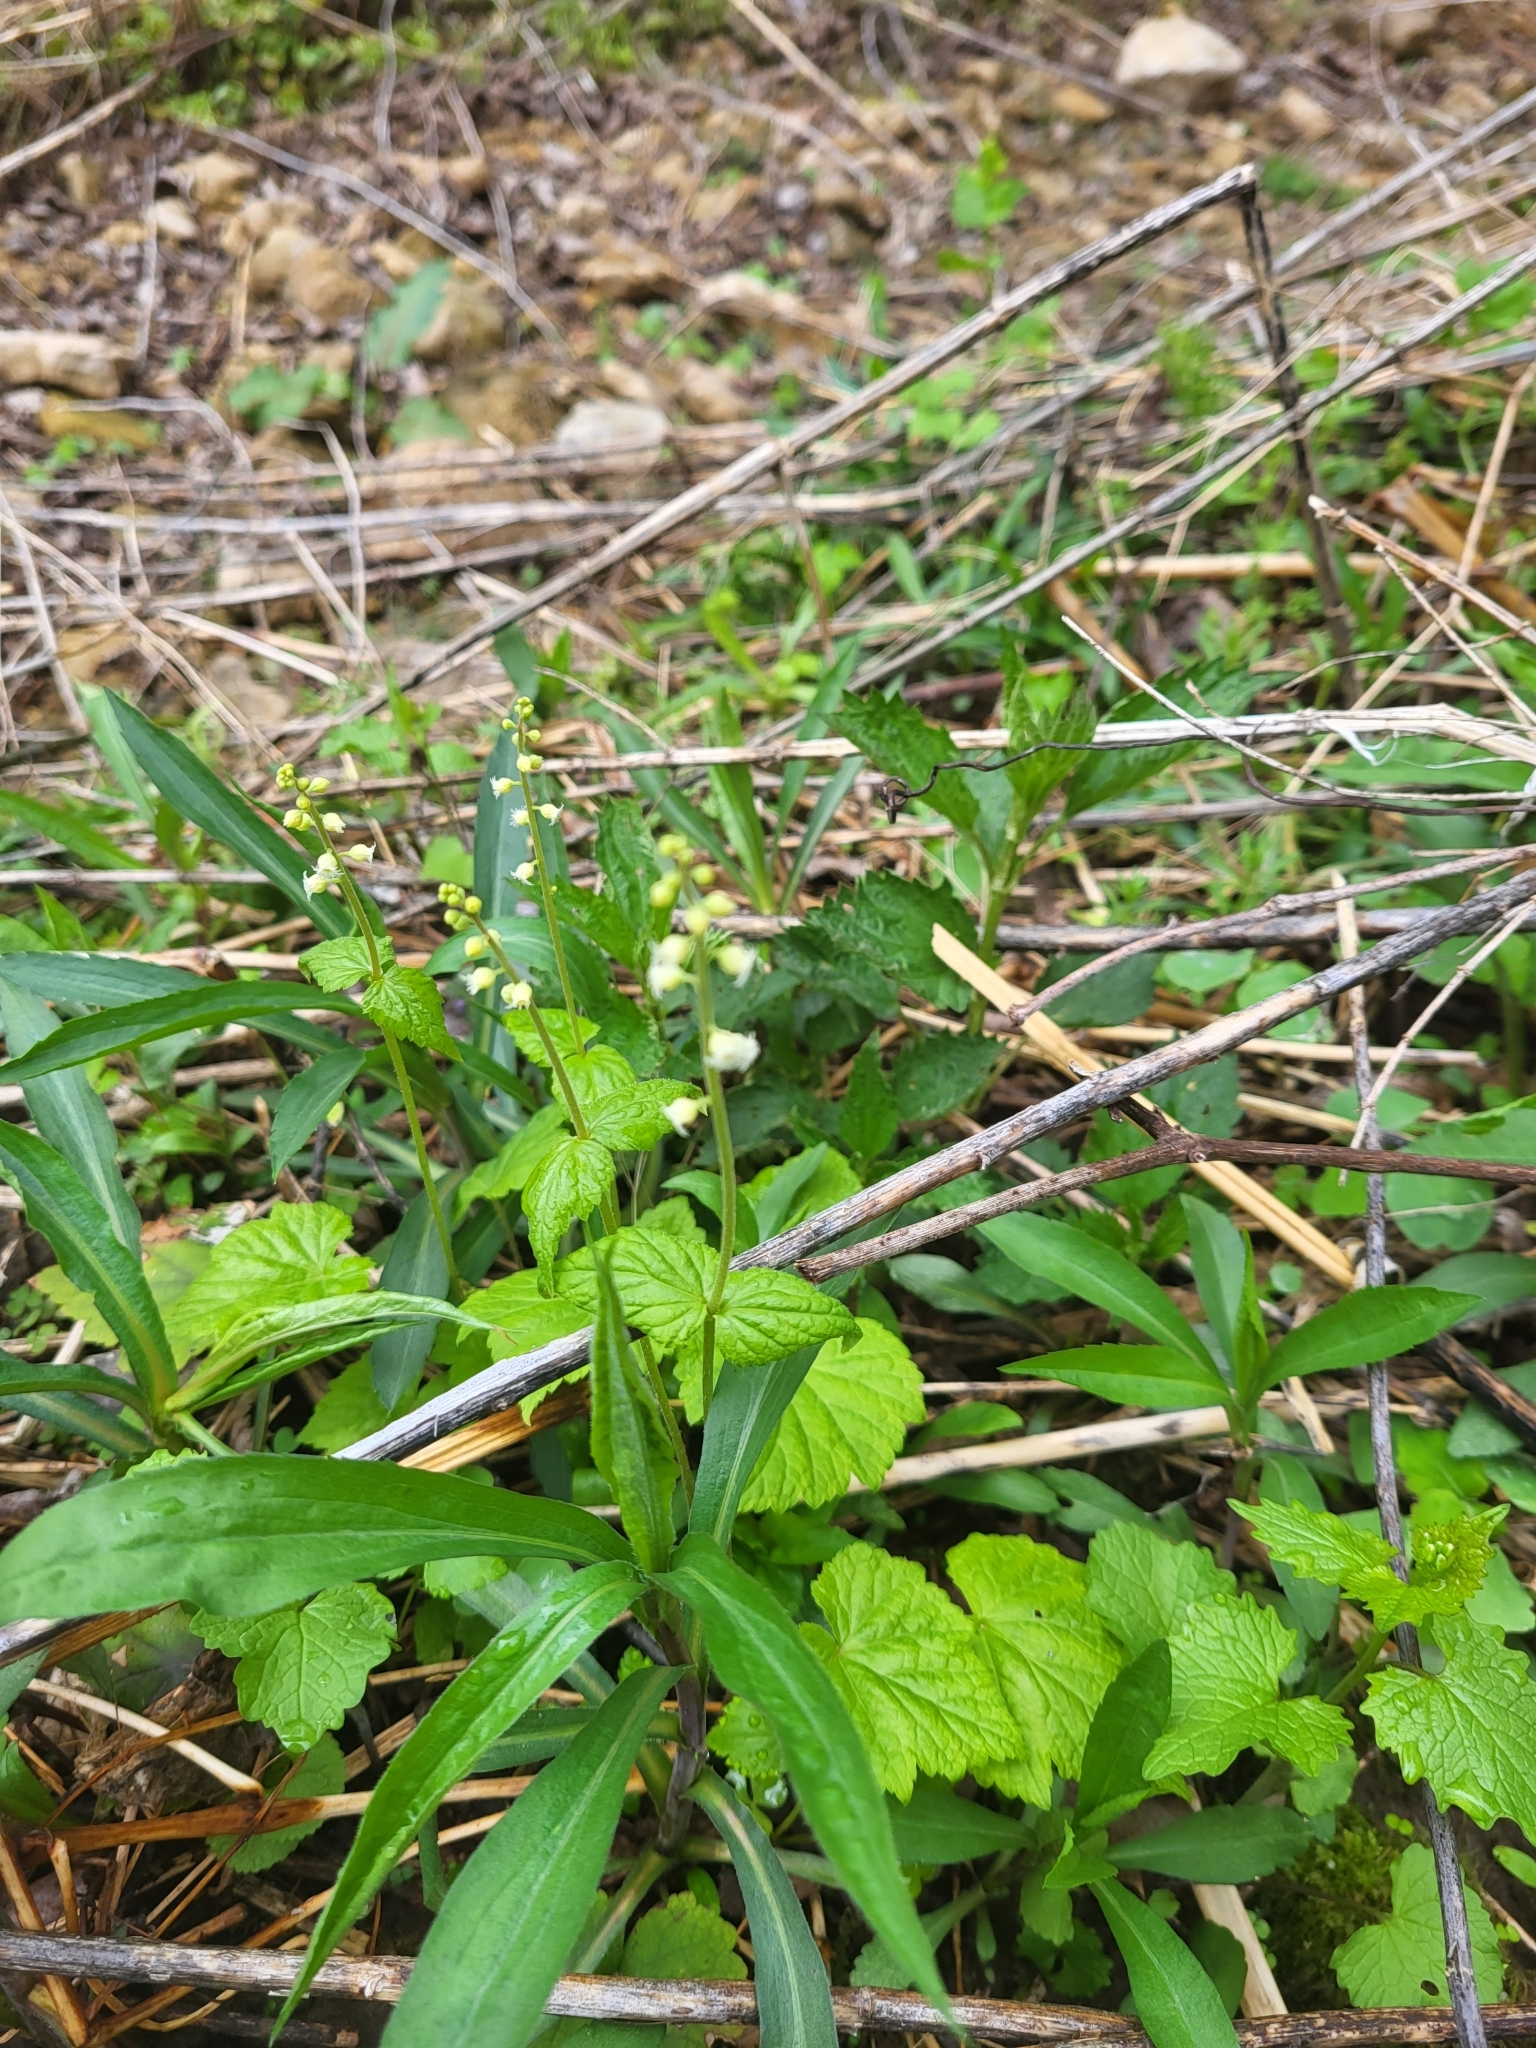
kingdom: Plantae
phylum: Tracheophyta
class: Magnoliopsida
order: Saxifragales
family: Saxifragaceae
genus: Mitella
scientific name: Mitella diphylla
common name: Coolwort
